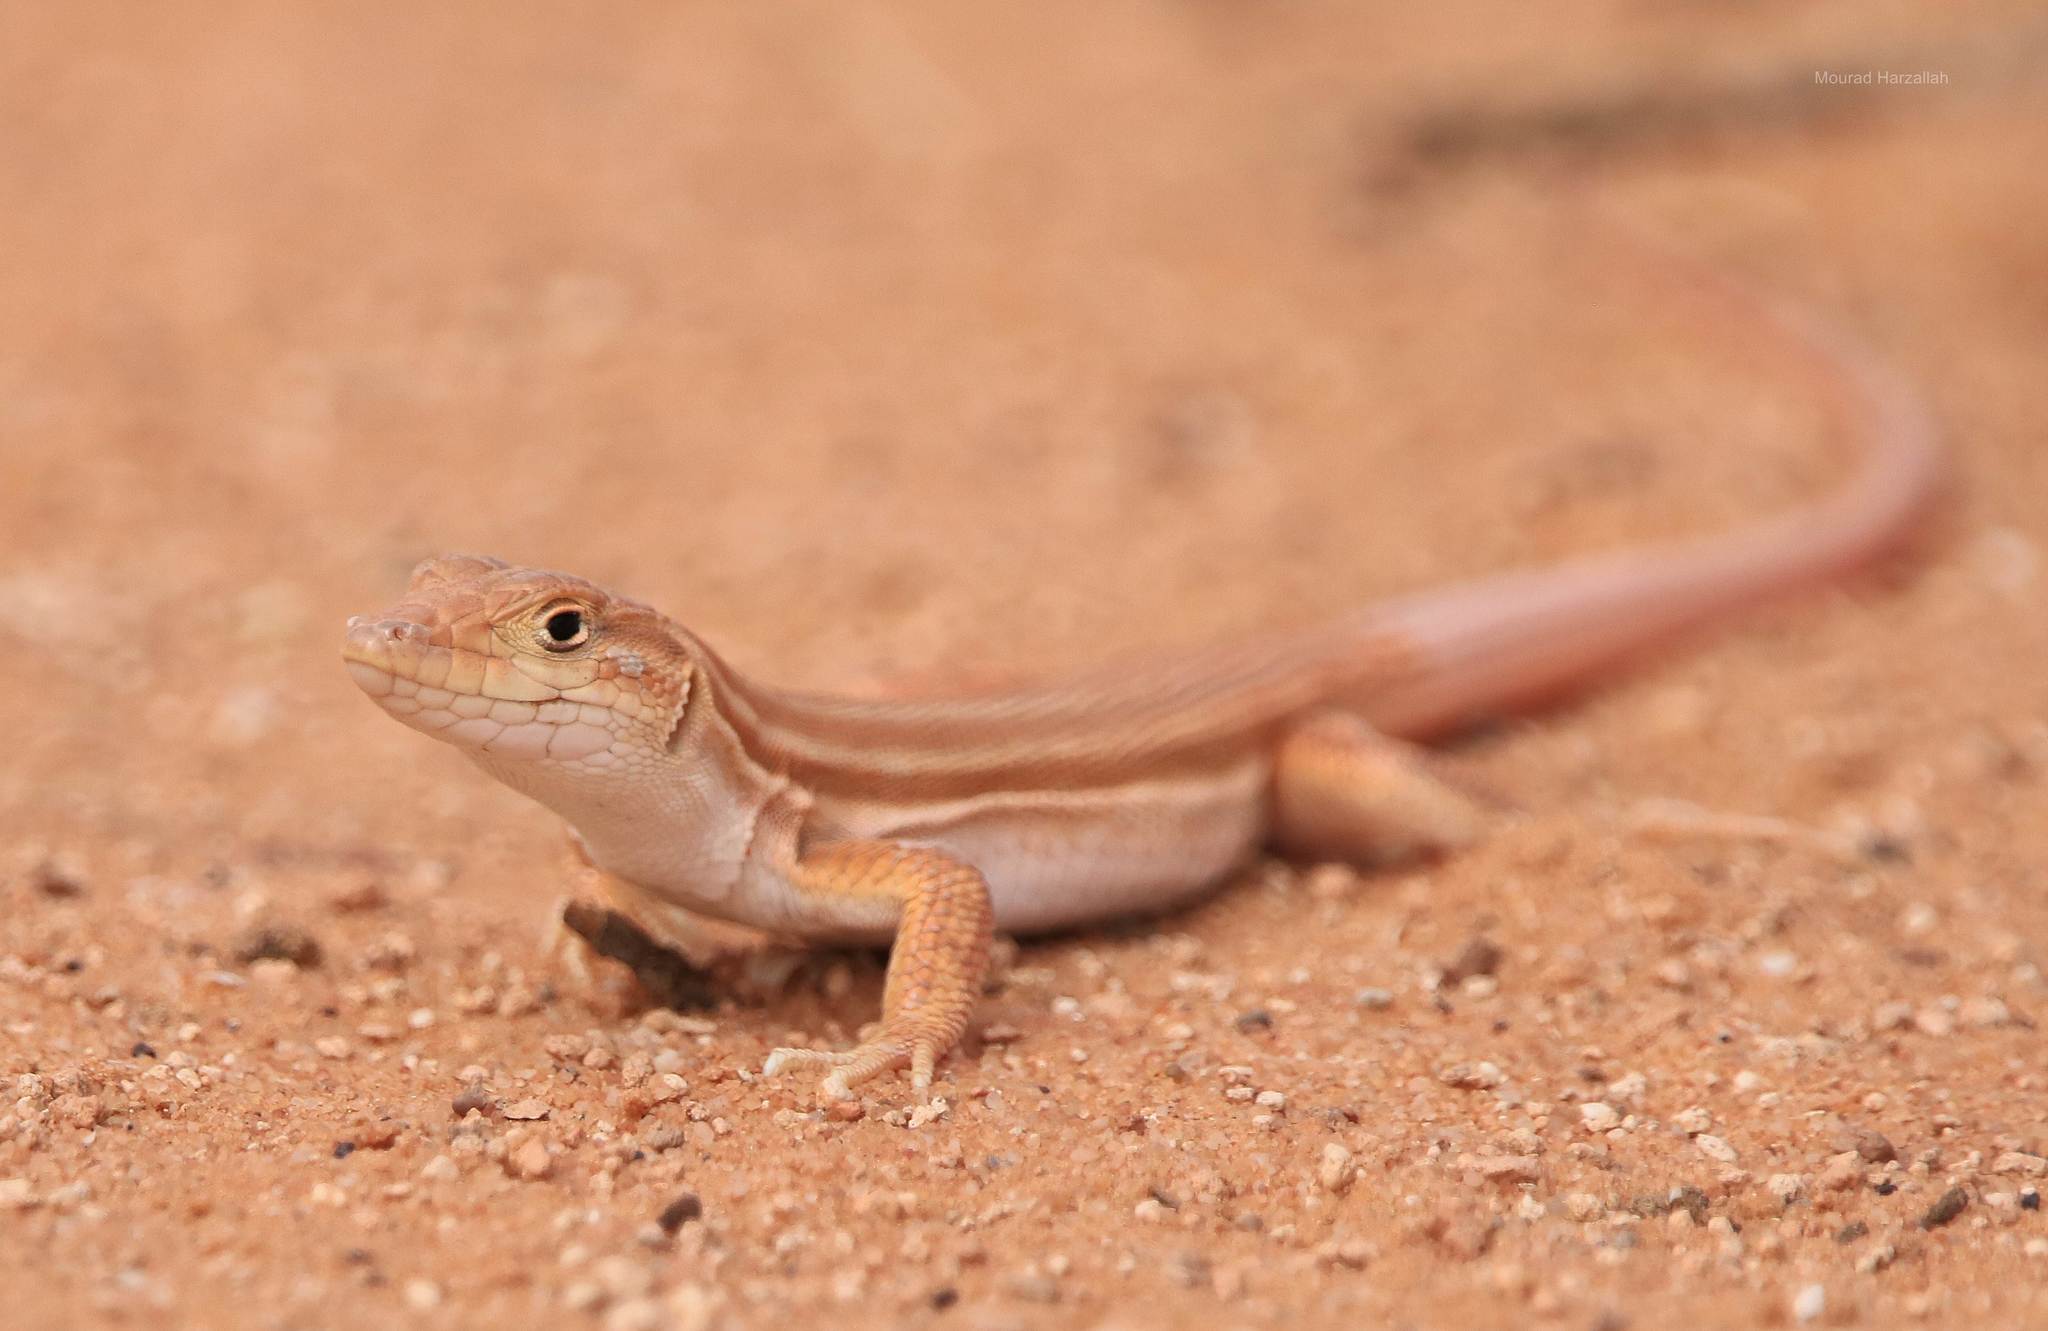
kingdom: Animalia
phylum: Chordata
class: Squamata
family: Lacertidae
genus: Acanthodactylus
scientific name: Acanthodactylus boskianus
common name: Bosc’s fringe-toed lizard
